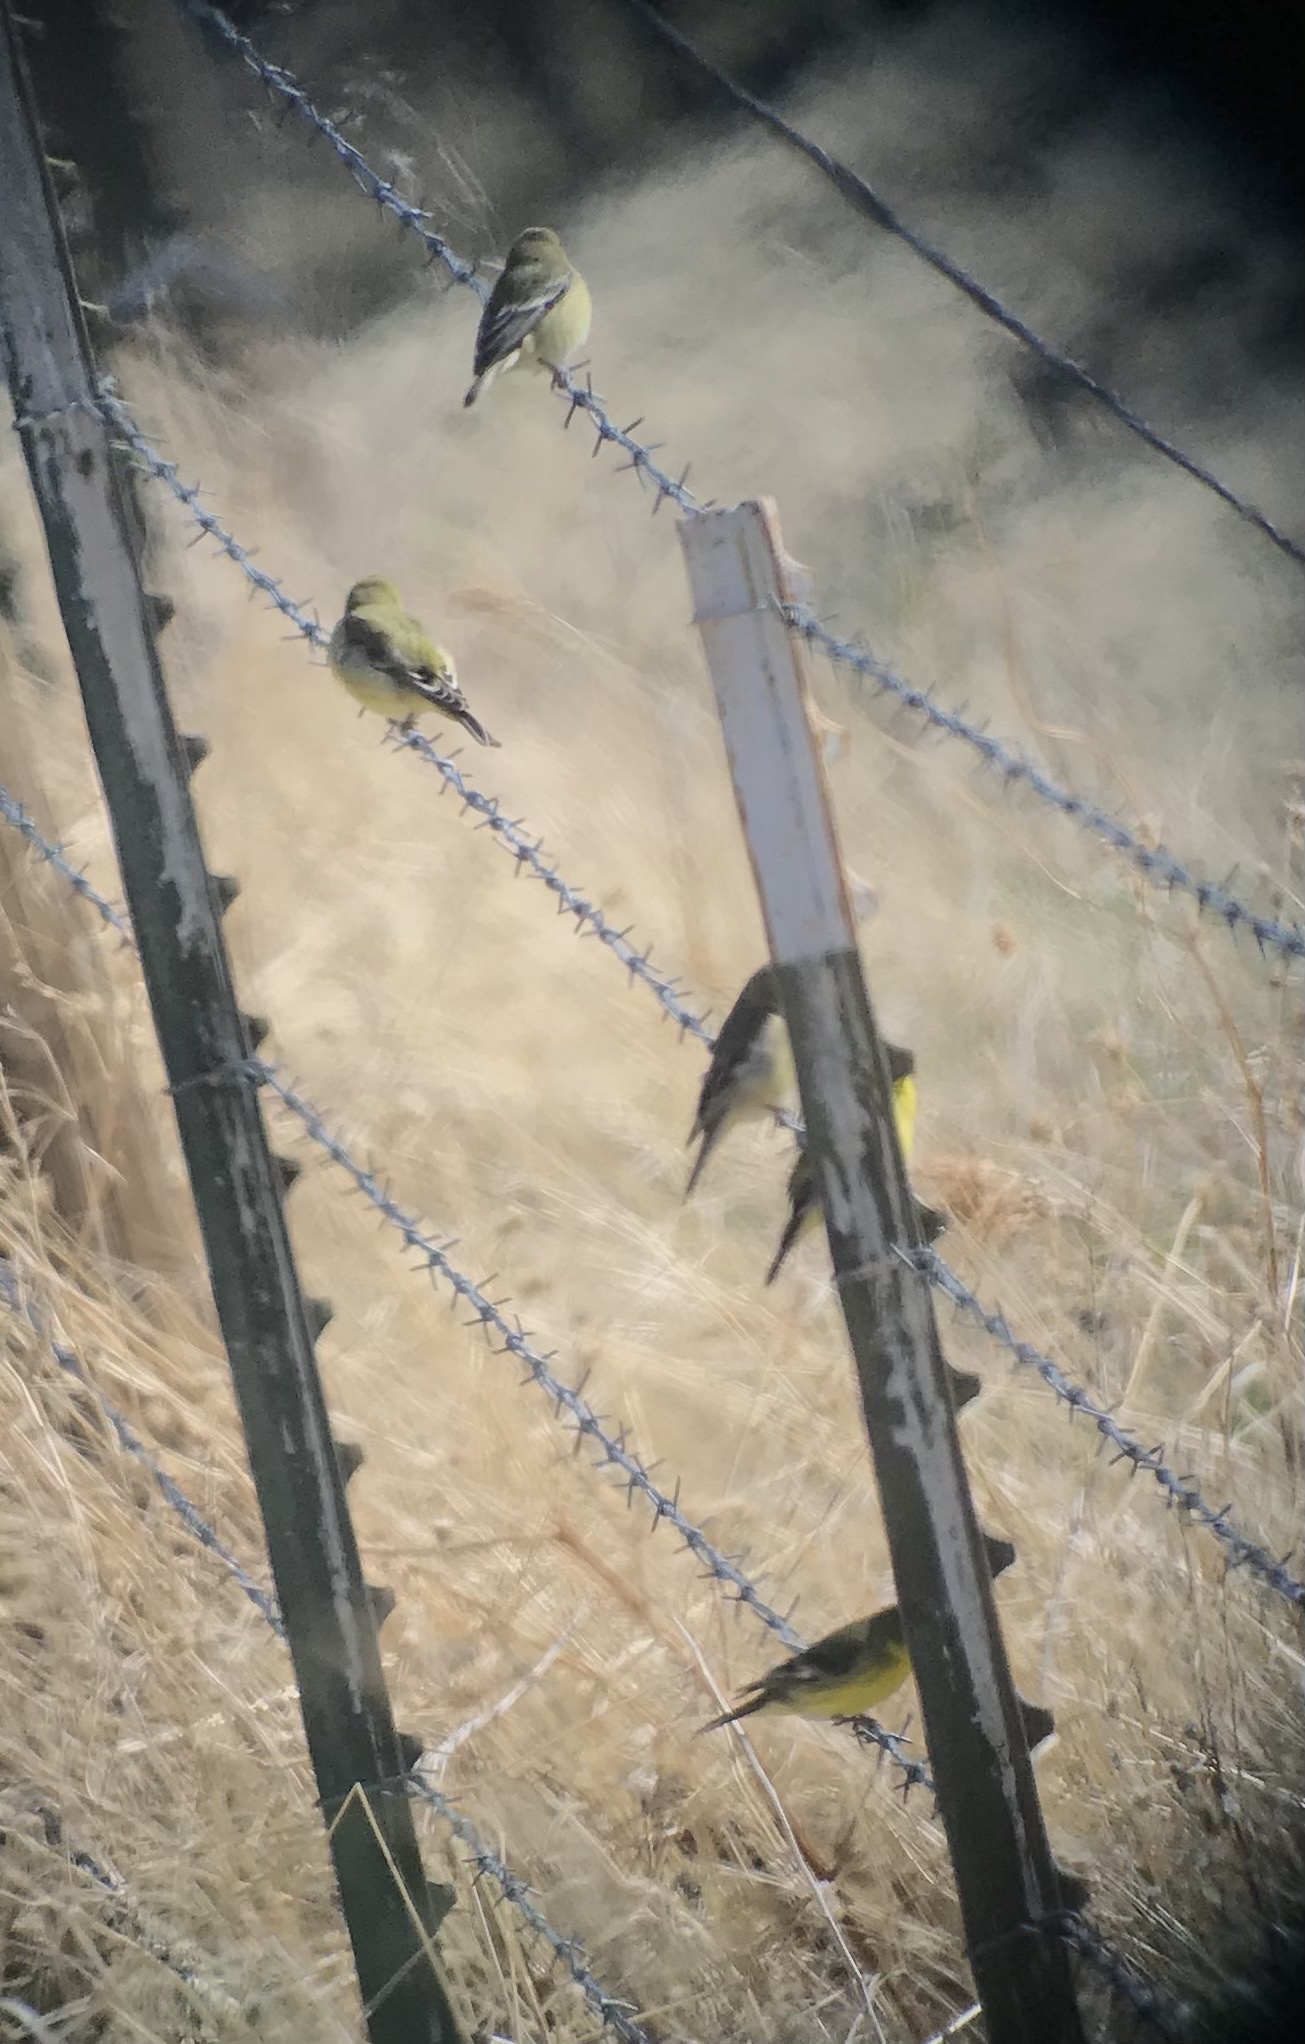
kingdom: Animalia
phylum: Chordata
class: Aves
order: Passeriformes
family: Fringillidae
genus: Spinus
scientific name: Spinus psaltria
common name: Lesser goldfinch
